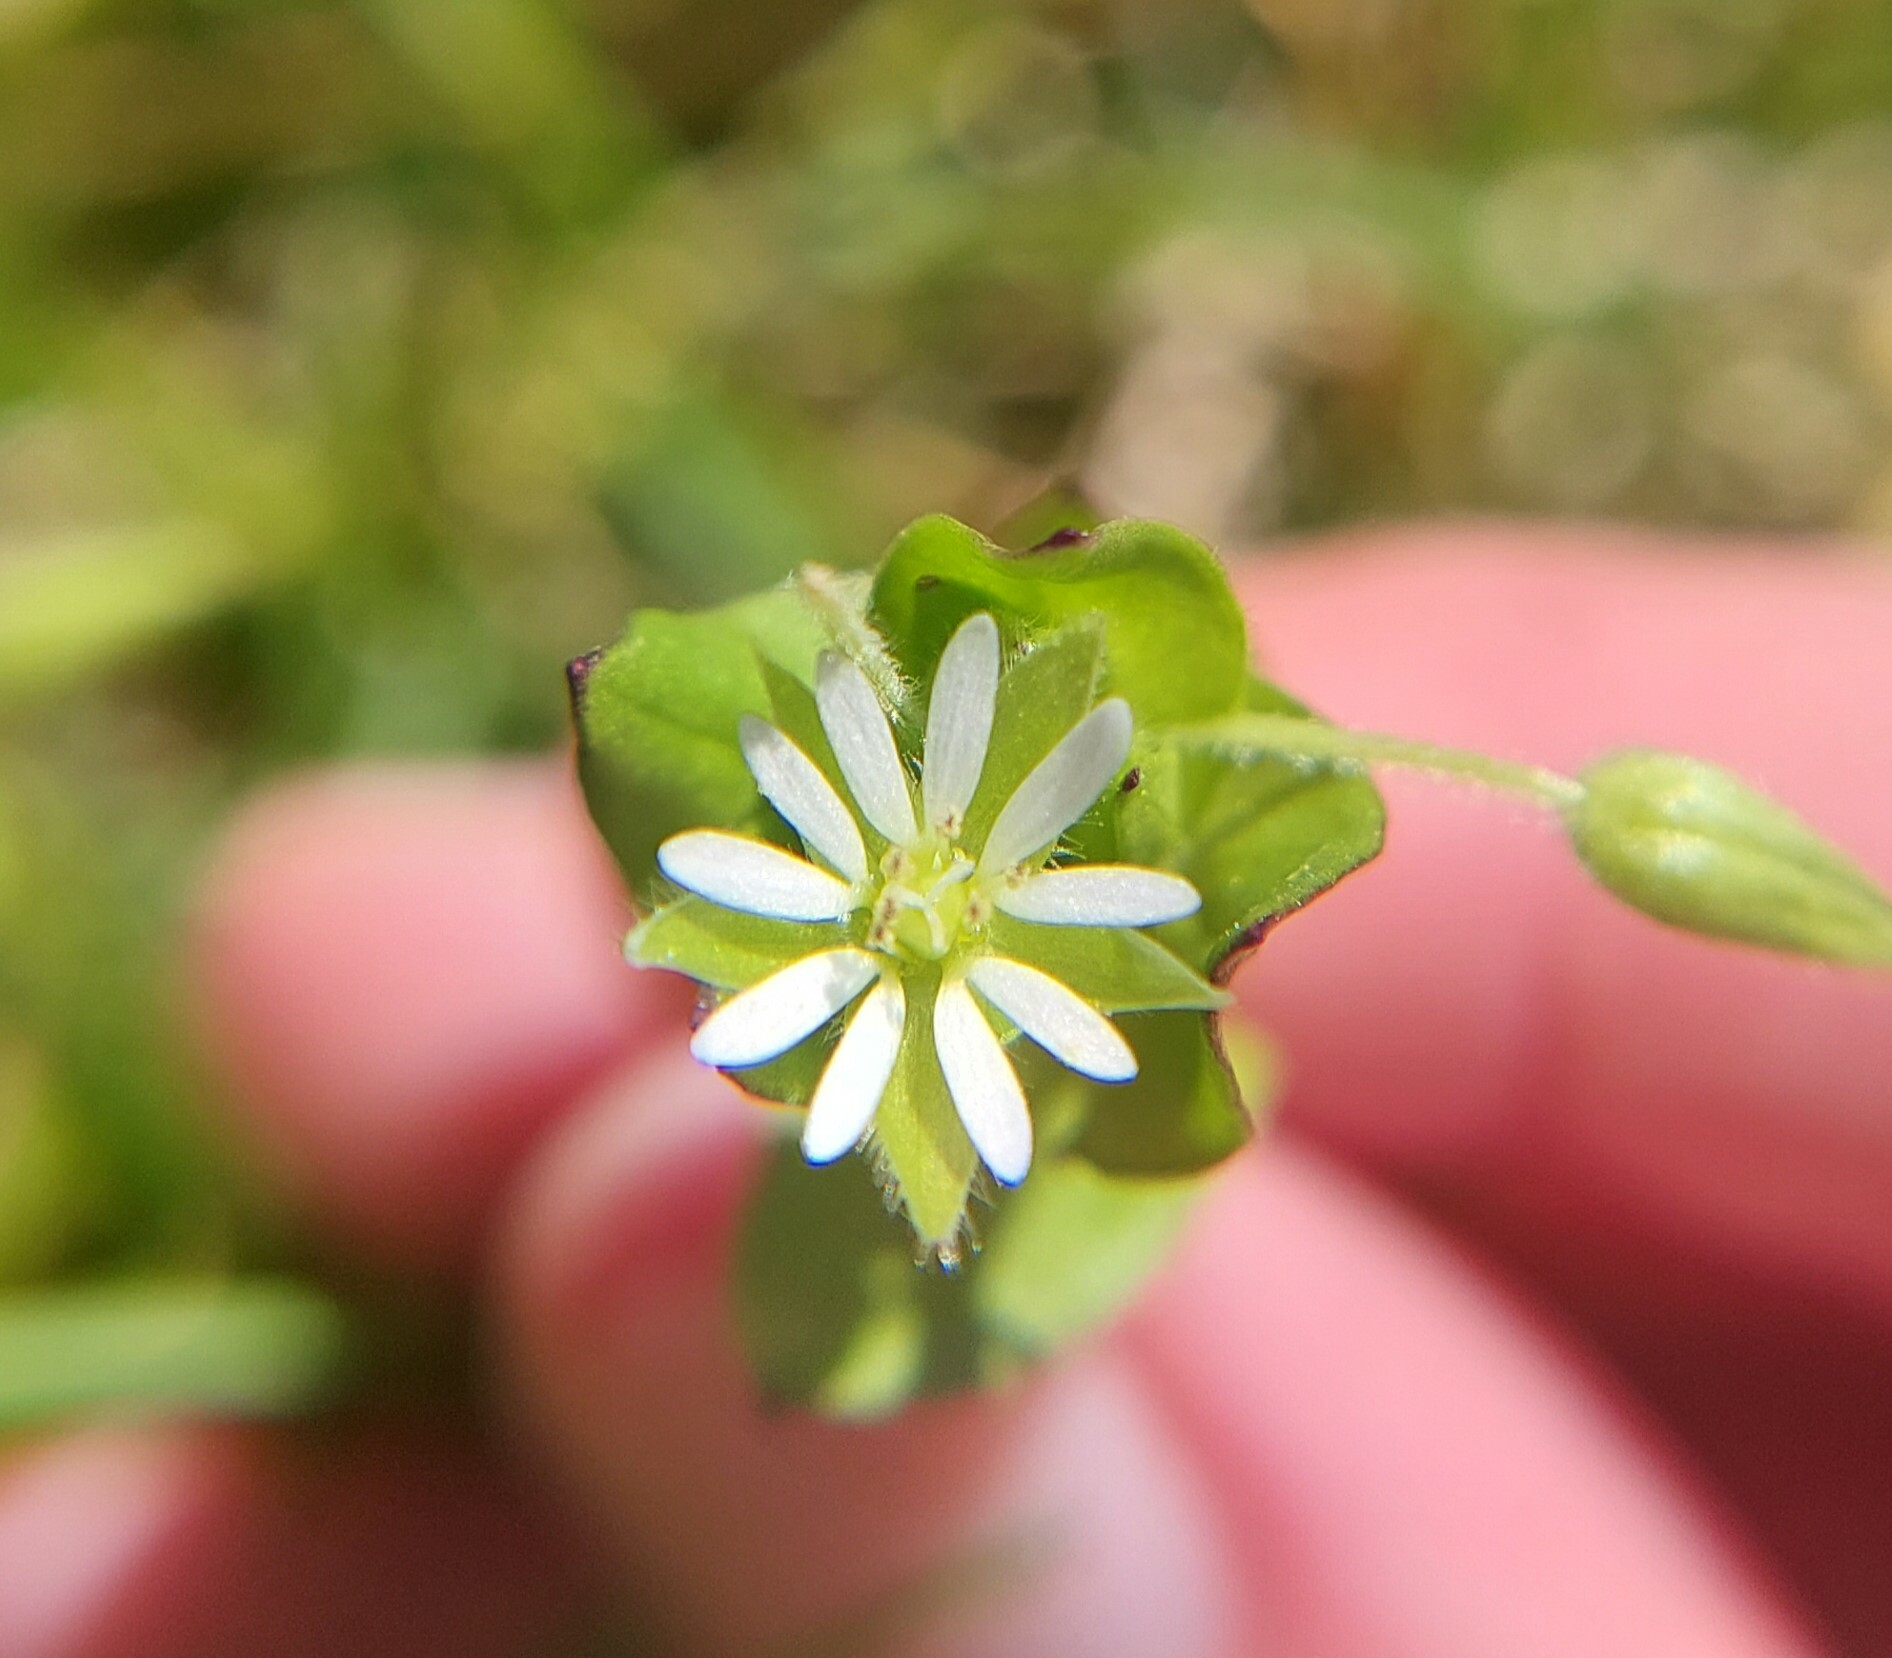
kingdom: Plantae
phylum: Tracheophyta
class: Magnoliopsida
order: Caryophyllales
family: Caryophyllaceae
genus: Stellaria
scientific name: Stellaria media
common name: Common chickweed
